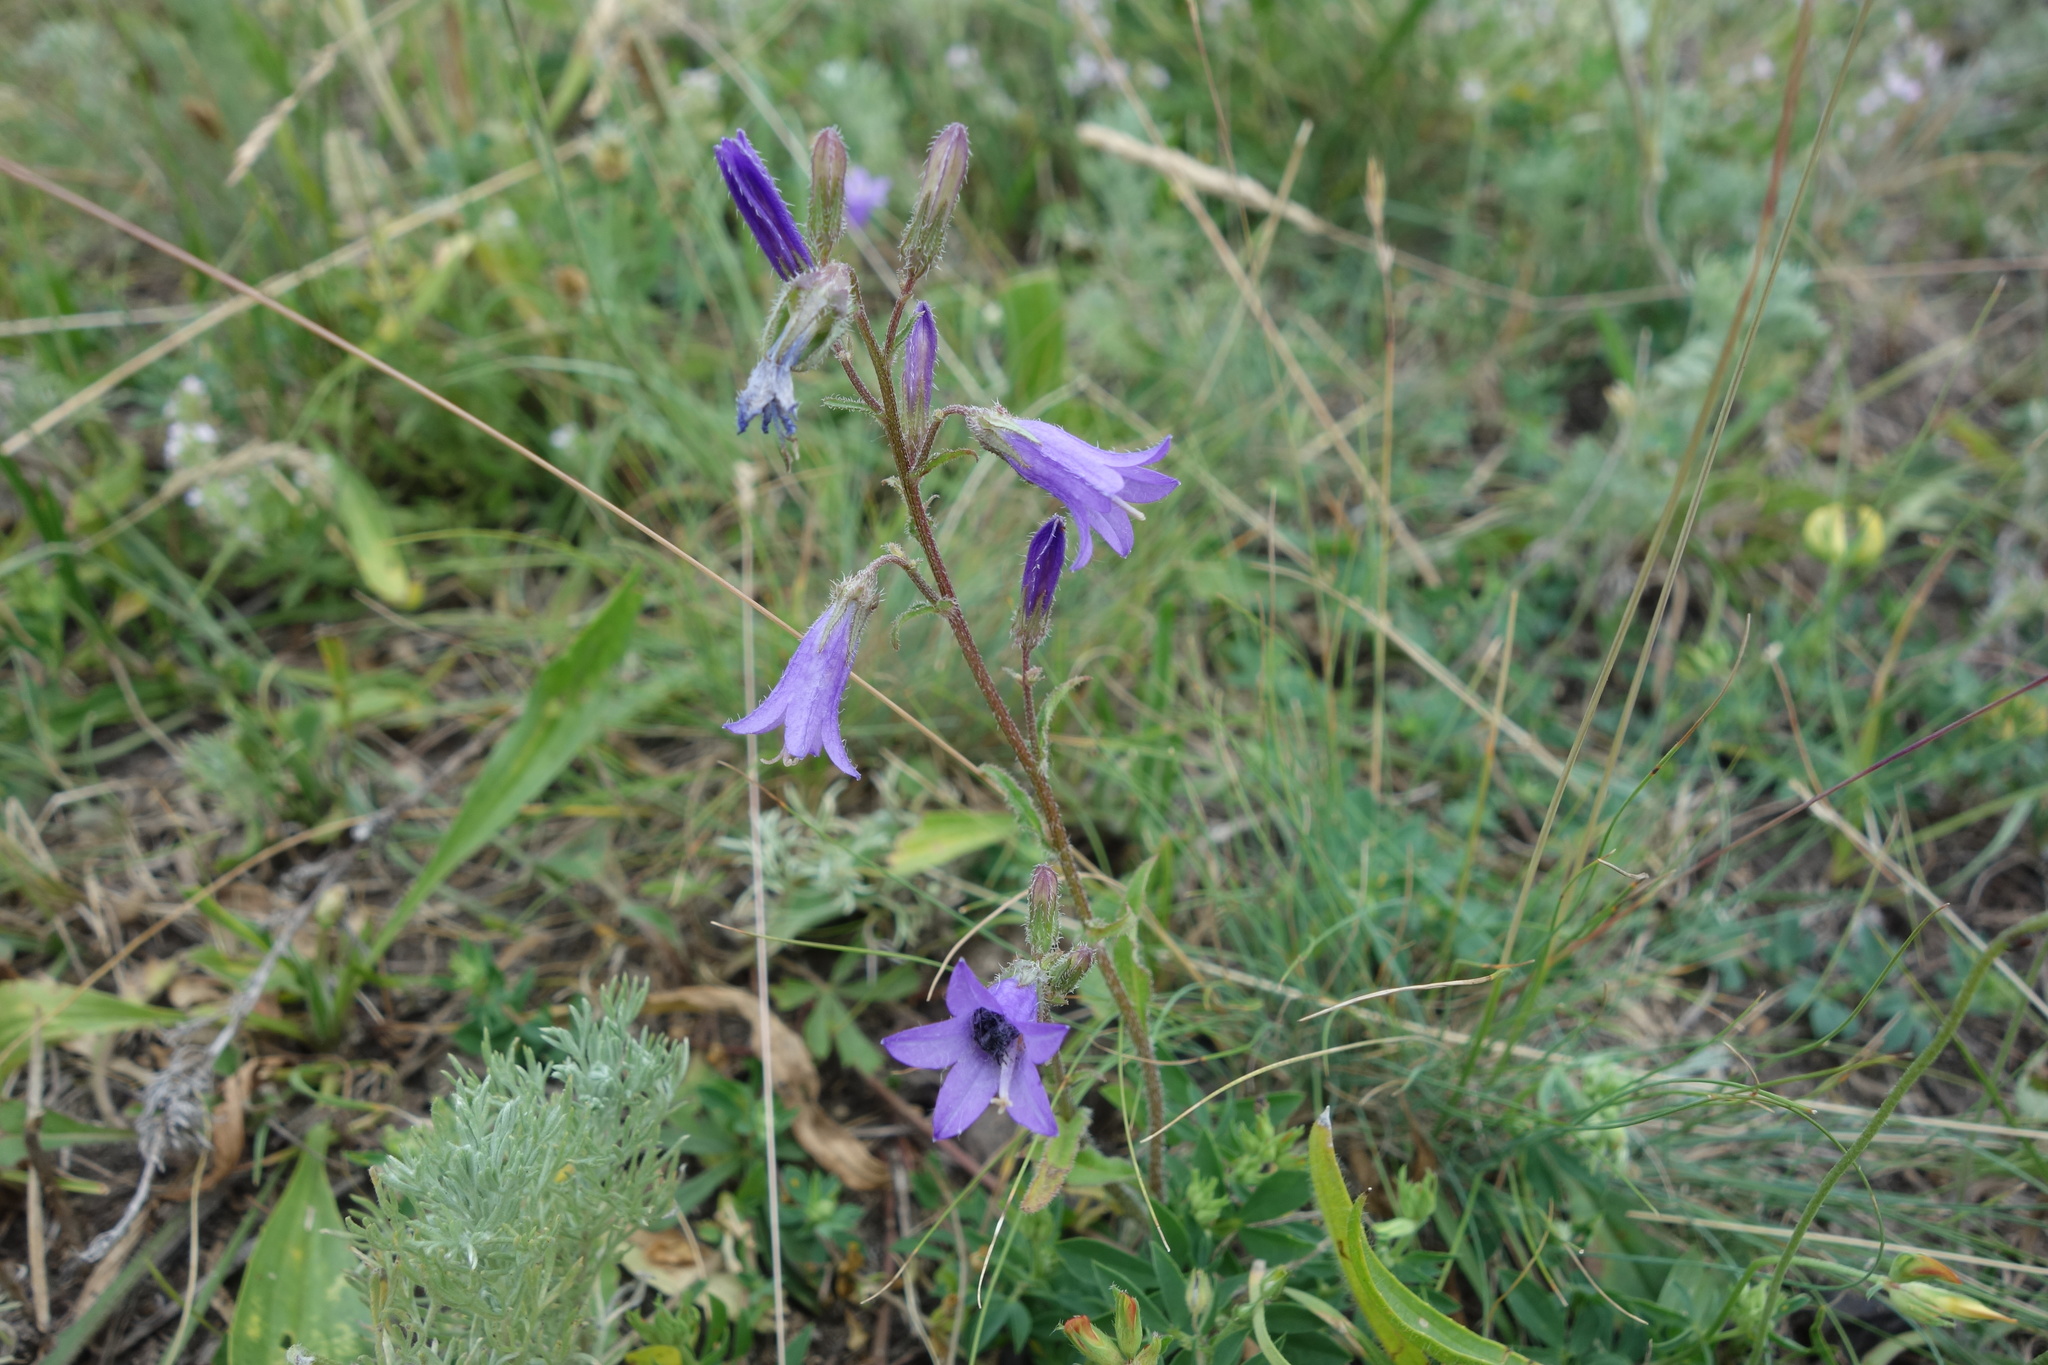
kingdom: Plantae
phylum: Tracheophyta
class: Magnoliopsida
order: Asterales
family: Campanulaceae
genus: Campanula
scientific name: Campanula sibirica
